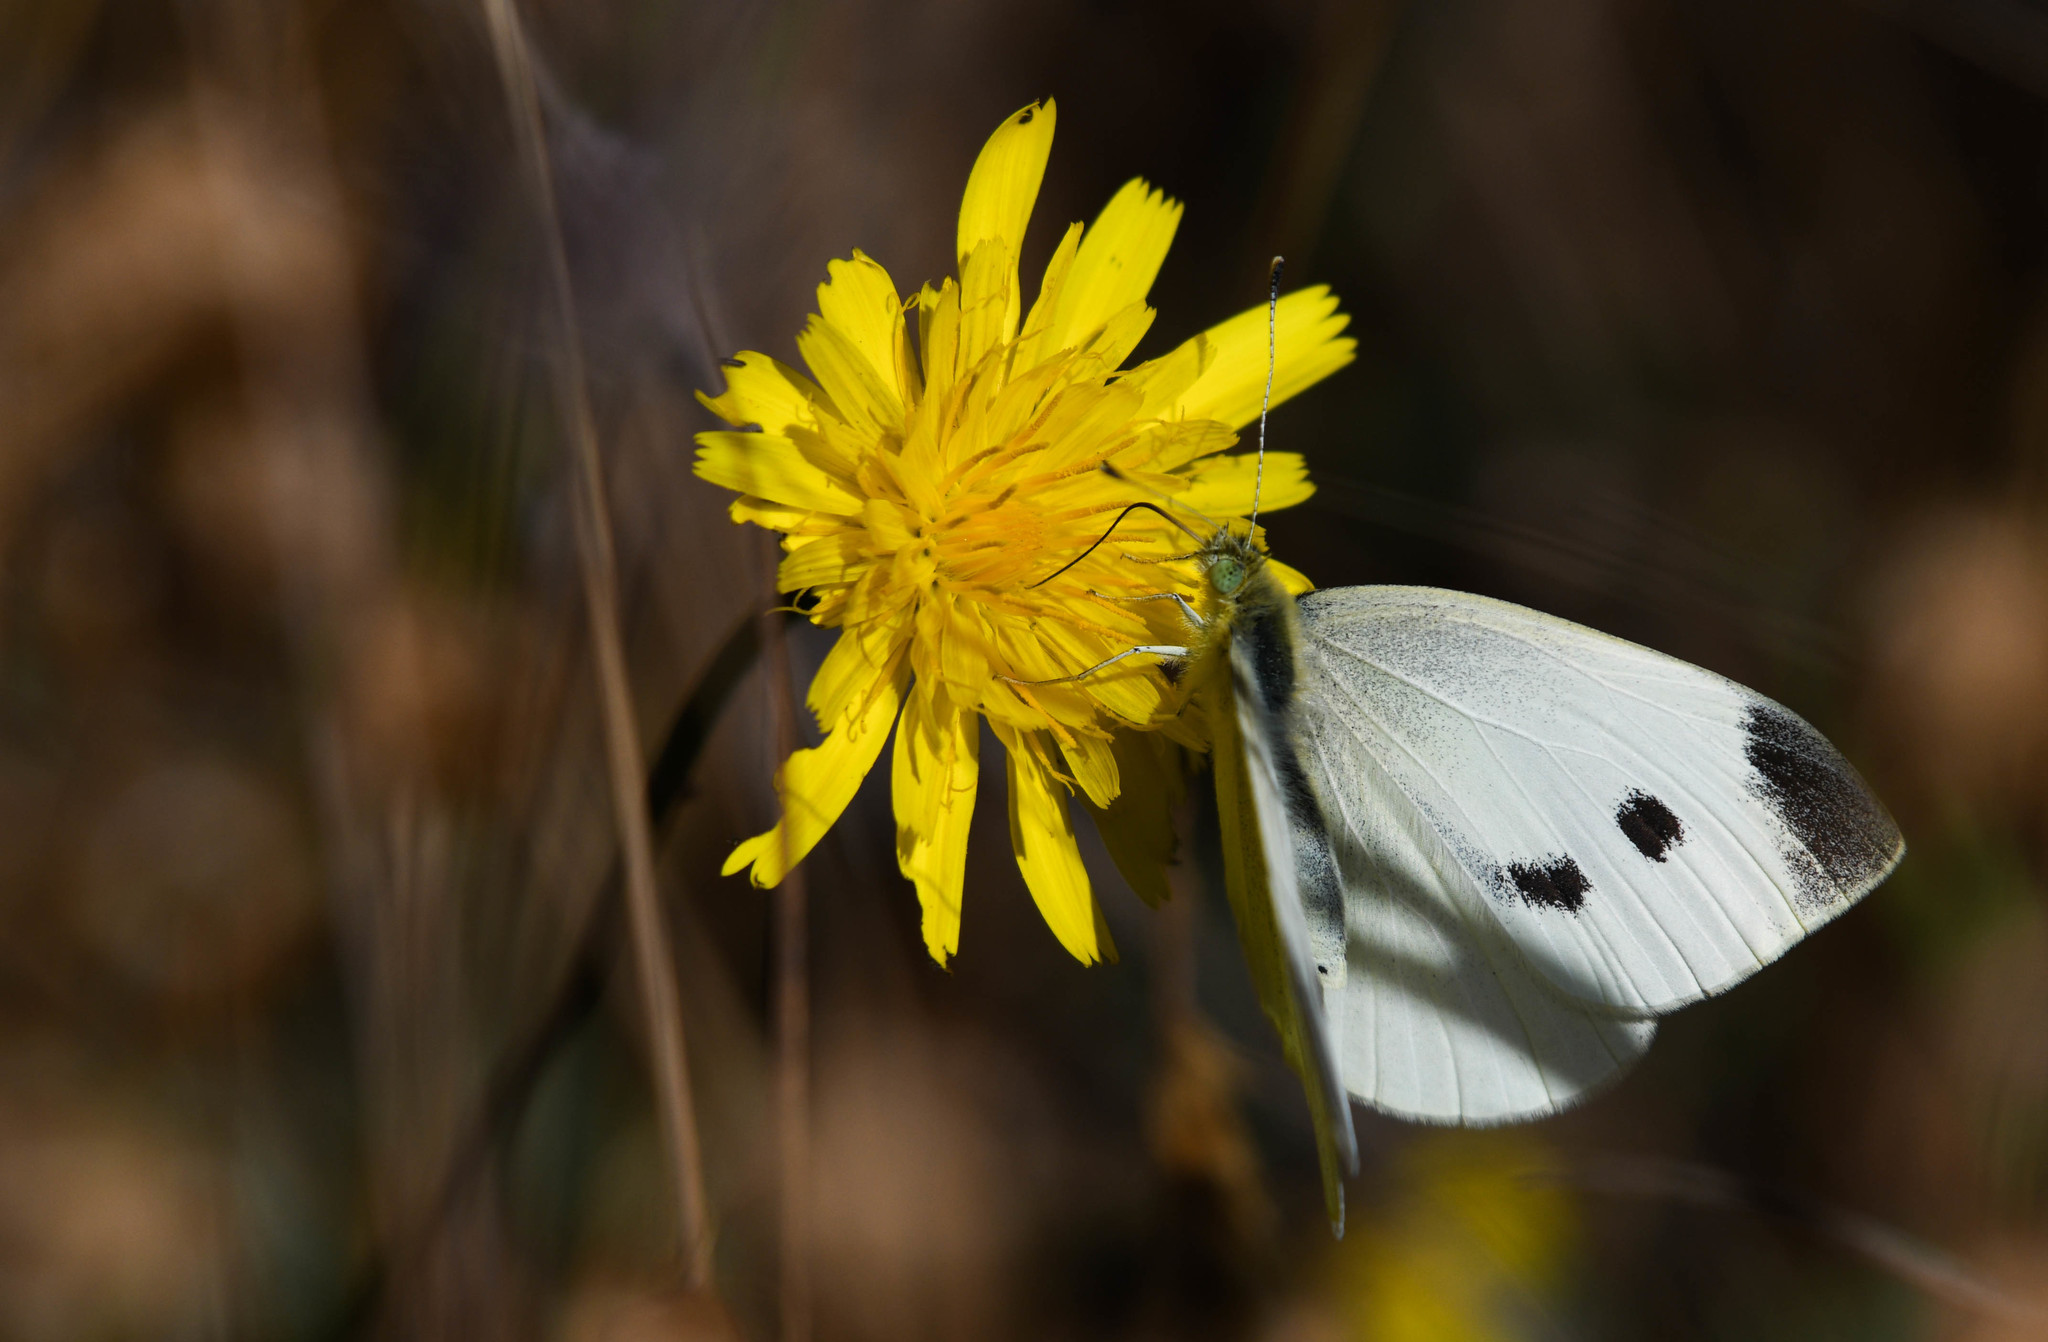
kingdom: Animalia
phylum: Arthropoda
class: Insecta
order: Lepidoptera
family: Pieridae
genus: Pieris
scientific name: Pieris rapae
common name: Small white
